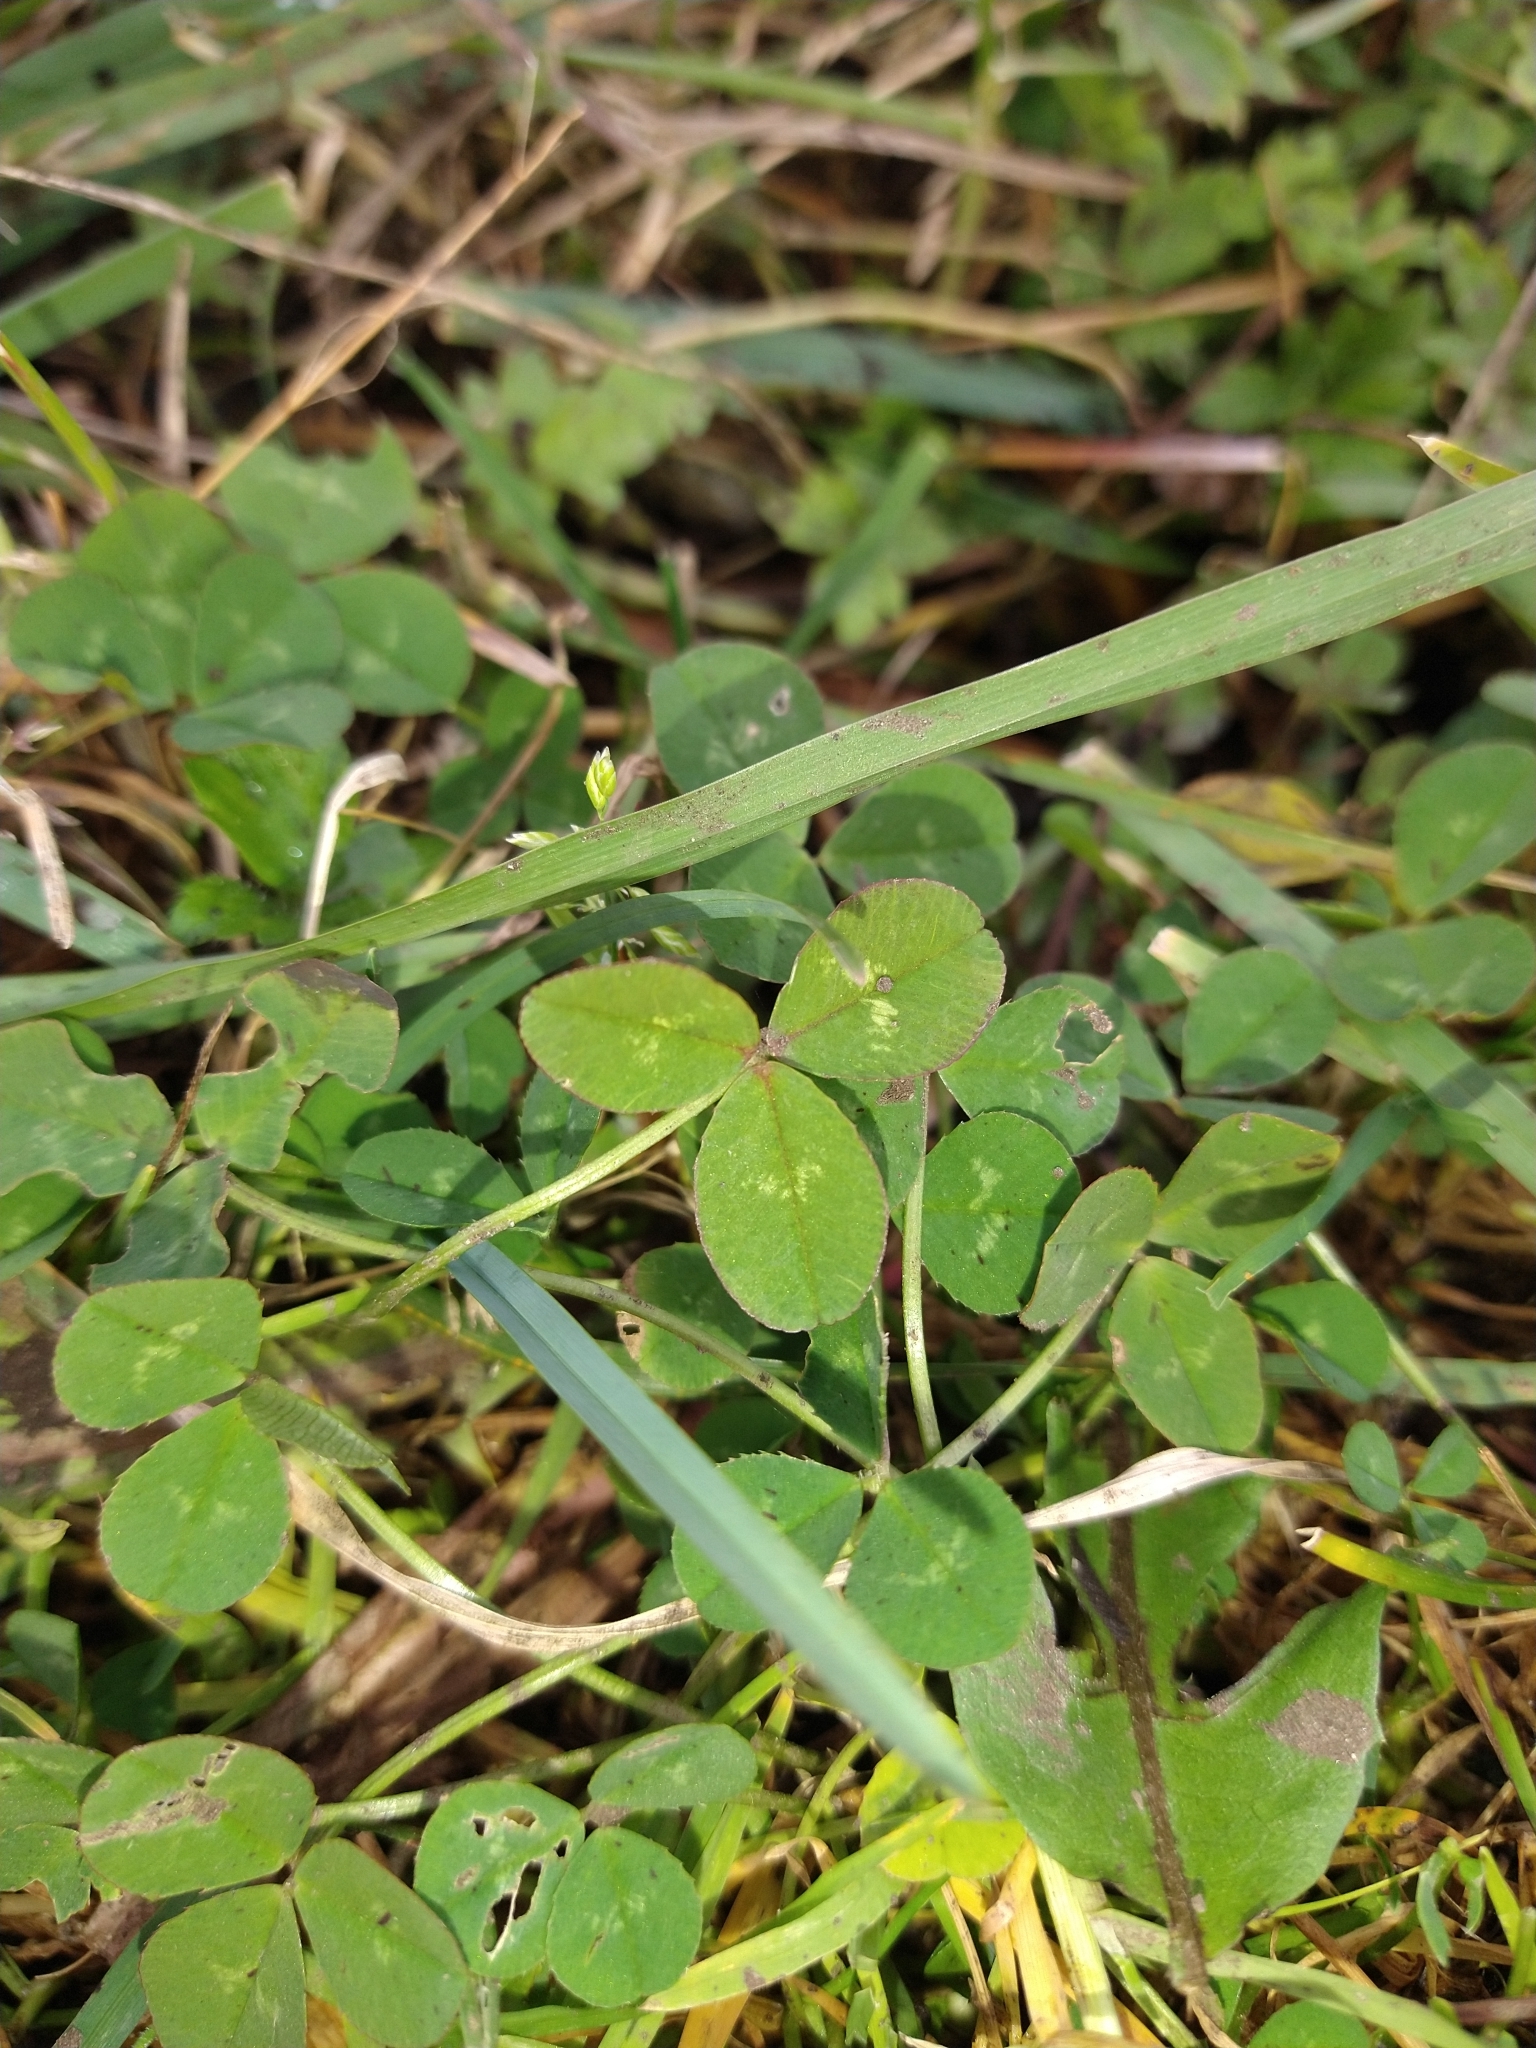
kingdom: Plantae
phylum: Tracheophyta
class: Magnoliopsida
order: Fabales
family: Fabaceae
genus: Trifolium
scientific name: Trifolium repens
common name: White clover
